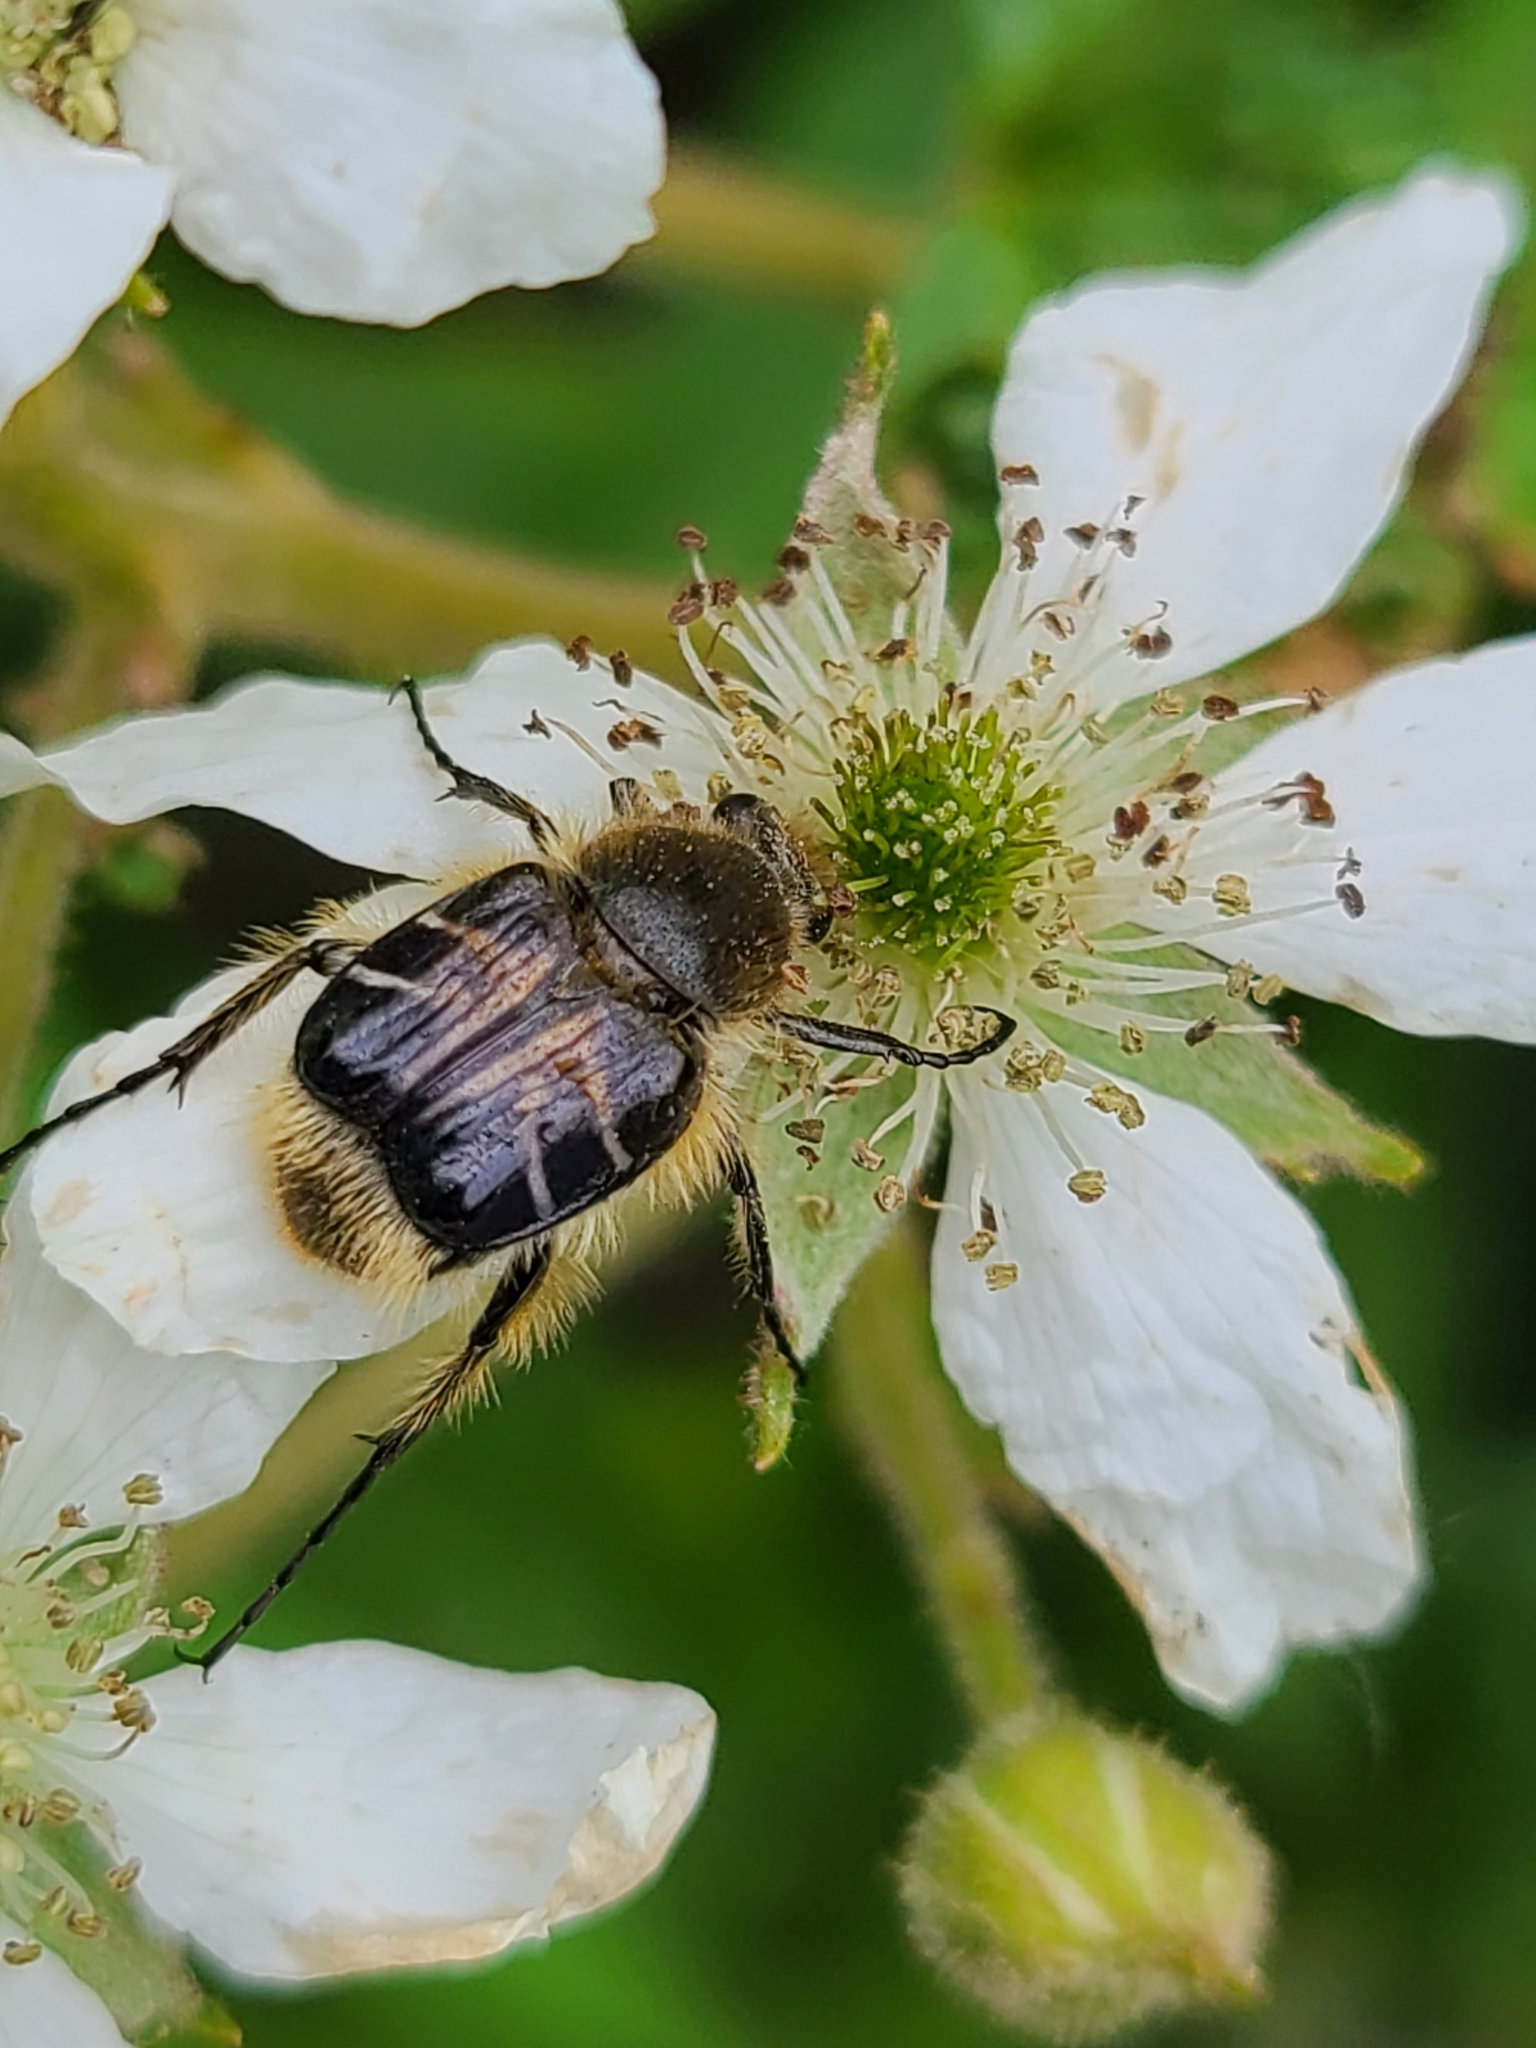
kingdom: Animalia
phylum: Arthropoda
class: Insecta
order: Coleoptera
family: Scarabaeidae
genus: Trichiotinus
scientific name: Trichiotinus assimilis
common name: Bee-mimic beetle
